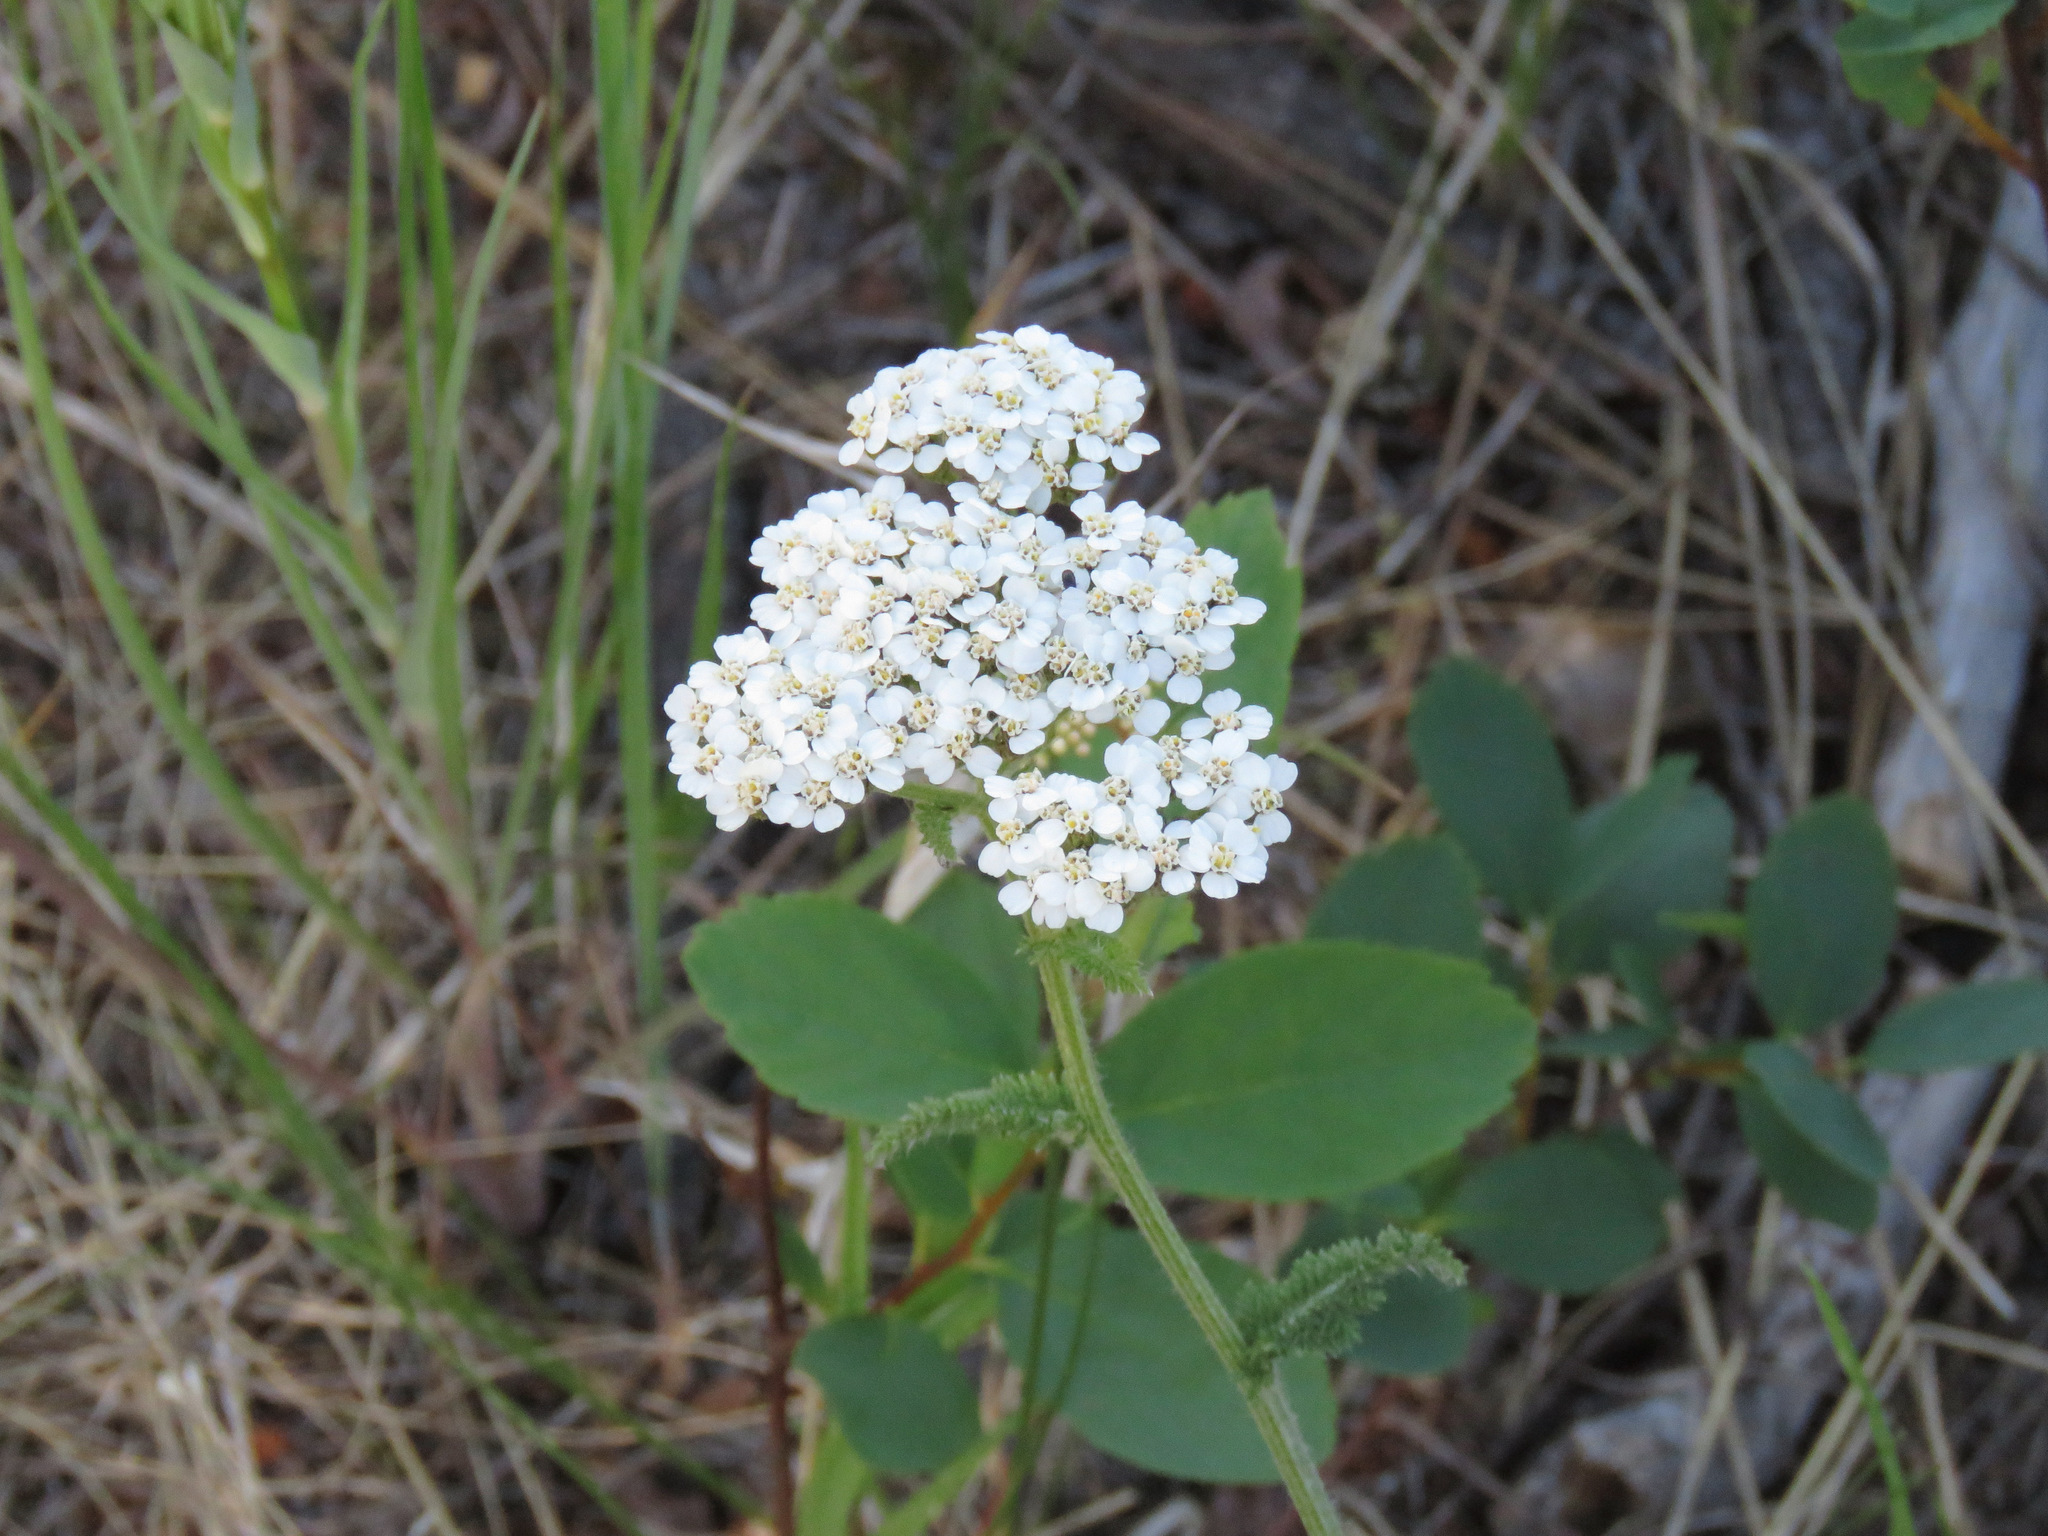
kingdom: Plantae
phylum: Tracheophyta
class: Magnoliopsida
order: Asterales
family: Asteraceae
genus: Achillea
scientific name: Achillea millefolium
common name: Yarrow
